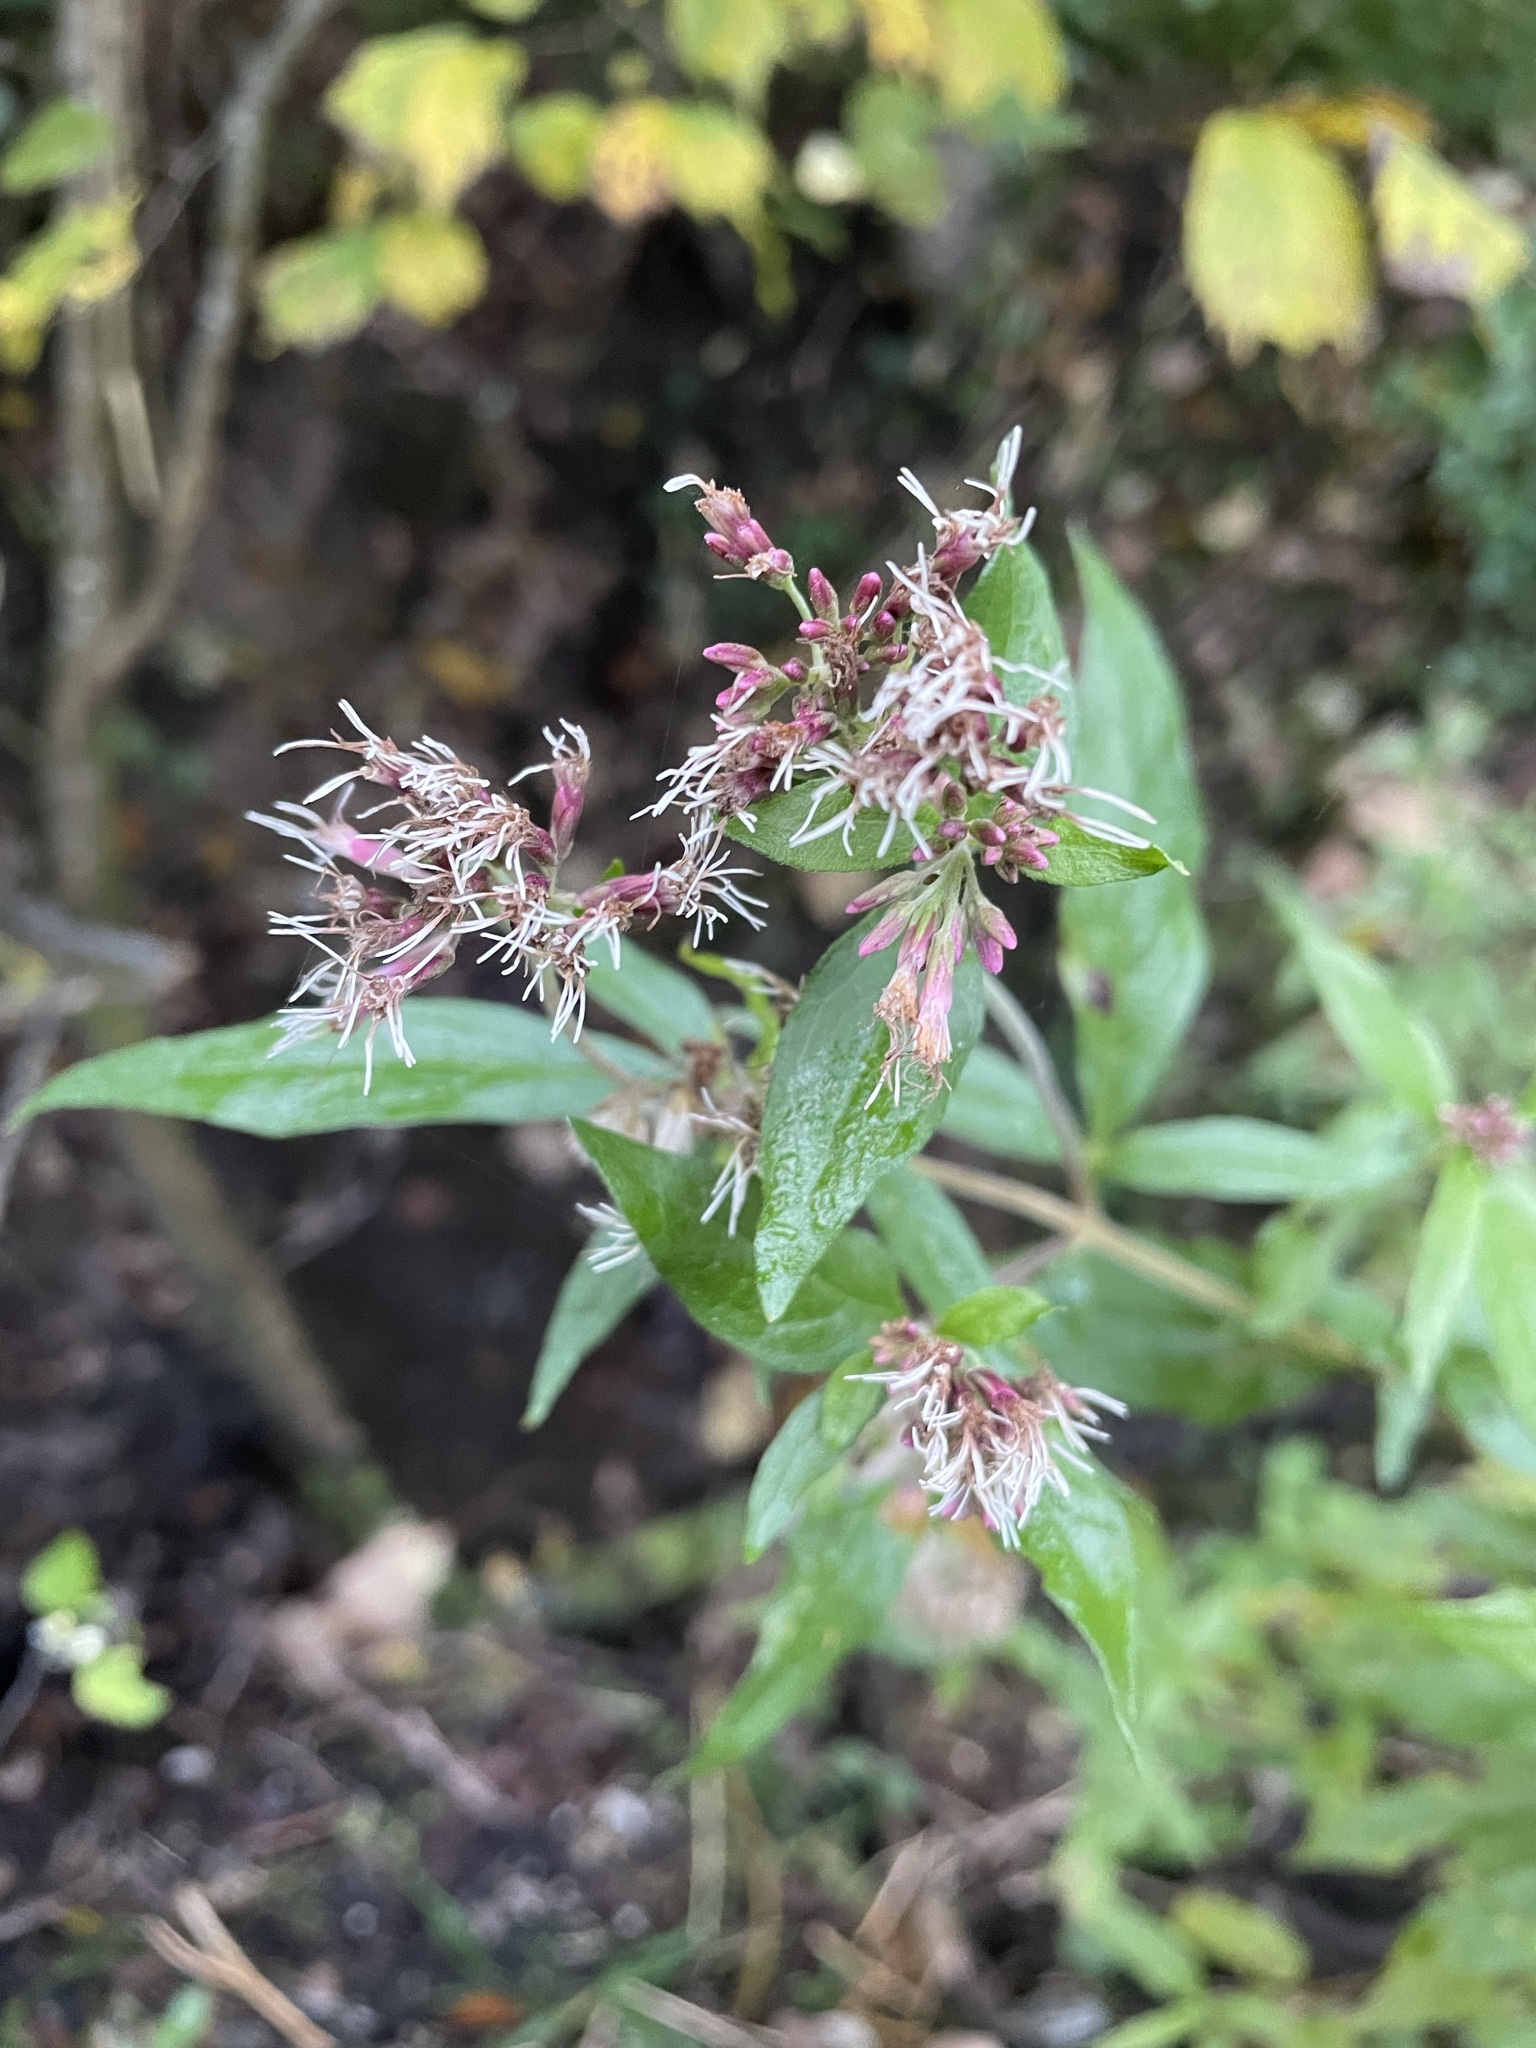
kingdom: Plantae
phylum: Tracheophyta
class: Magnoliopsida
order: Asterales
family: Asteraceae
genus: Eupatorium
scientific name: Eupatorium cannabinum
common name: Hemp-agrimony
